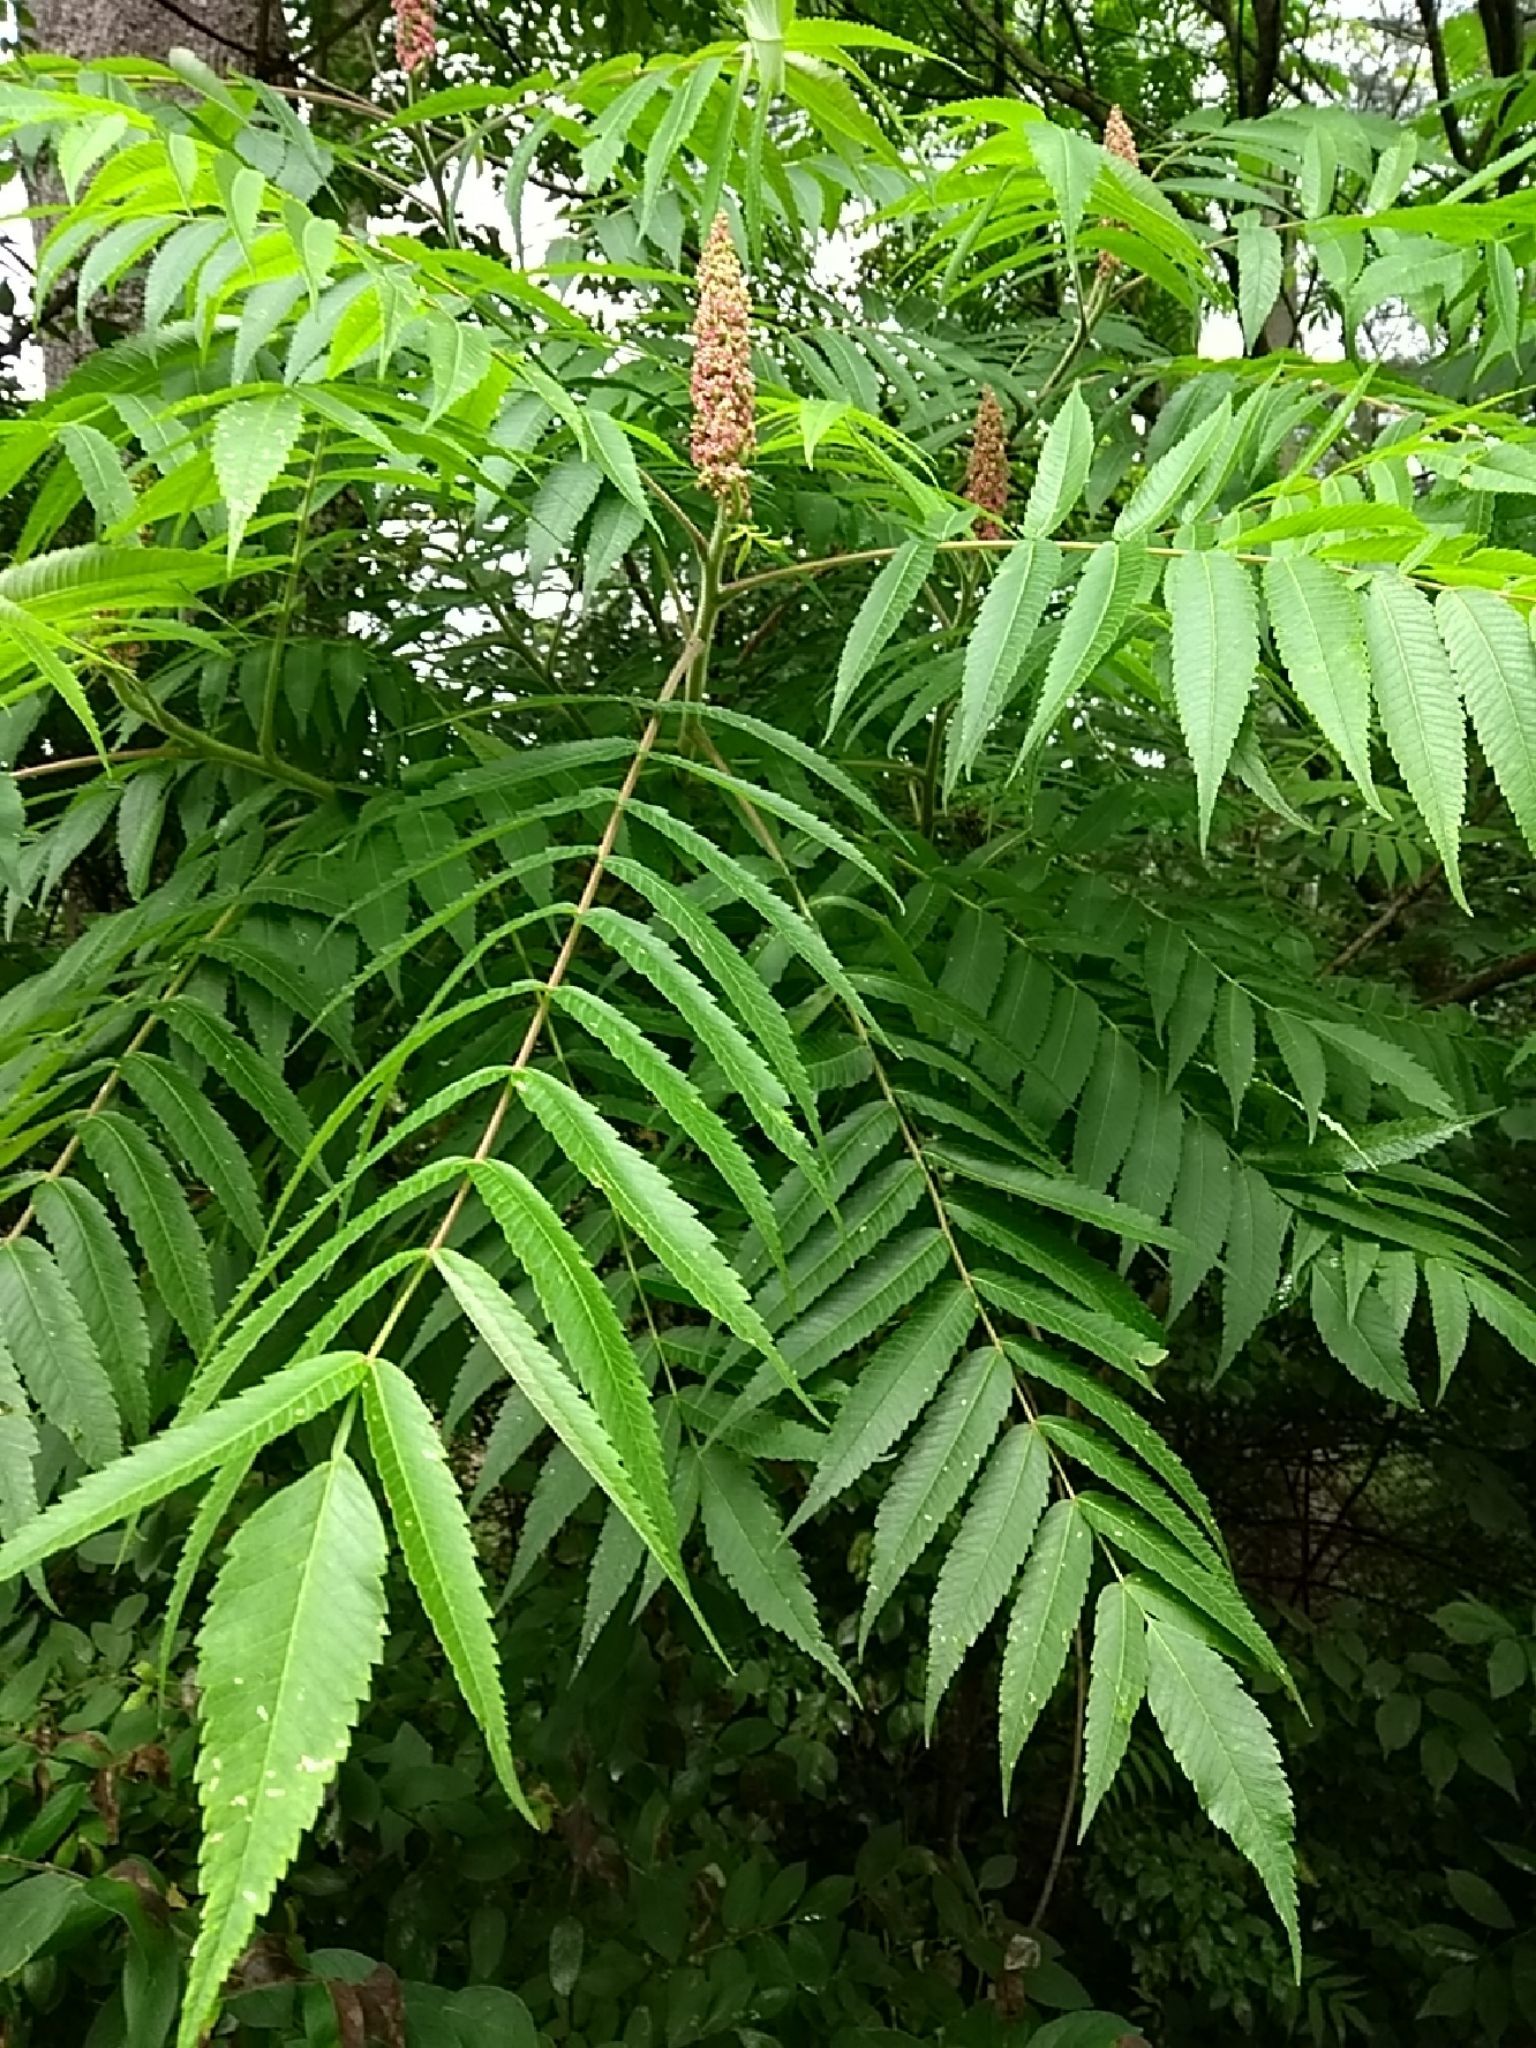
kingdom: Plantae
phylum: Tracheophyta
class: Magnoliopsida
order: Sapindales
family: Anacardiaceae
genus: Rhus
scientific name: Rhus typhina
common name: Staghorn sumac
